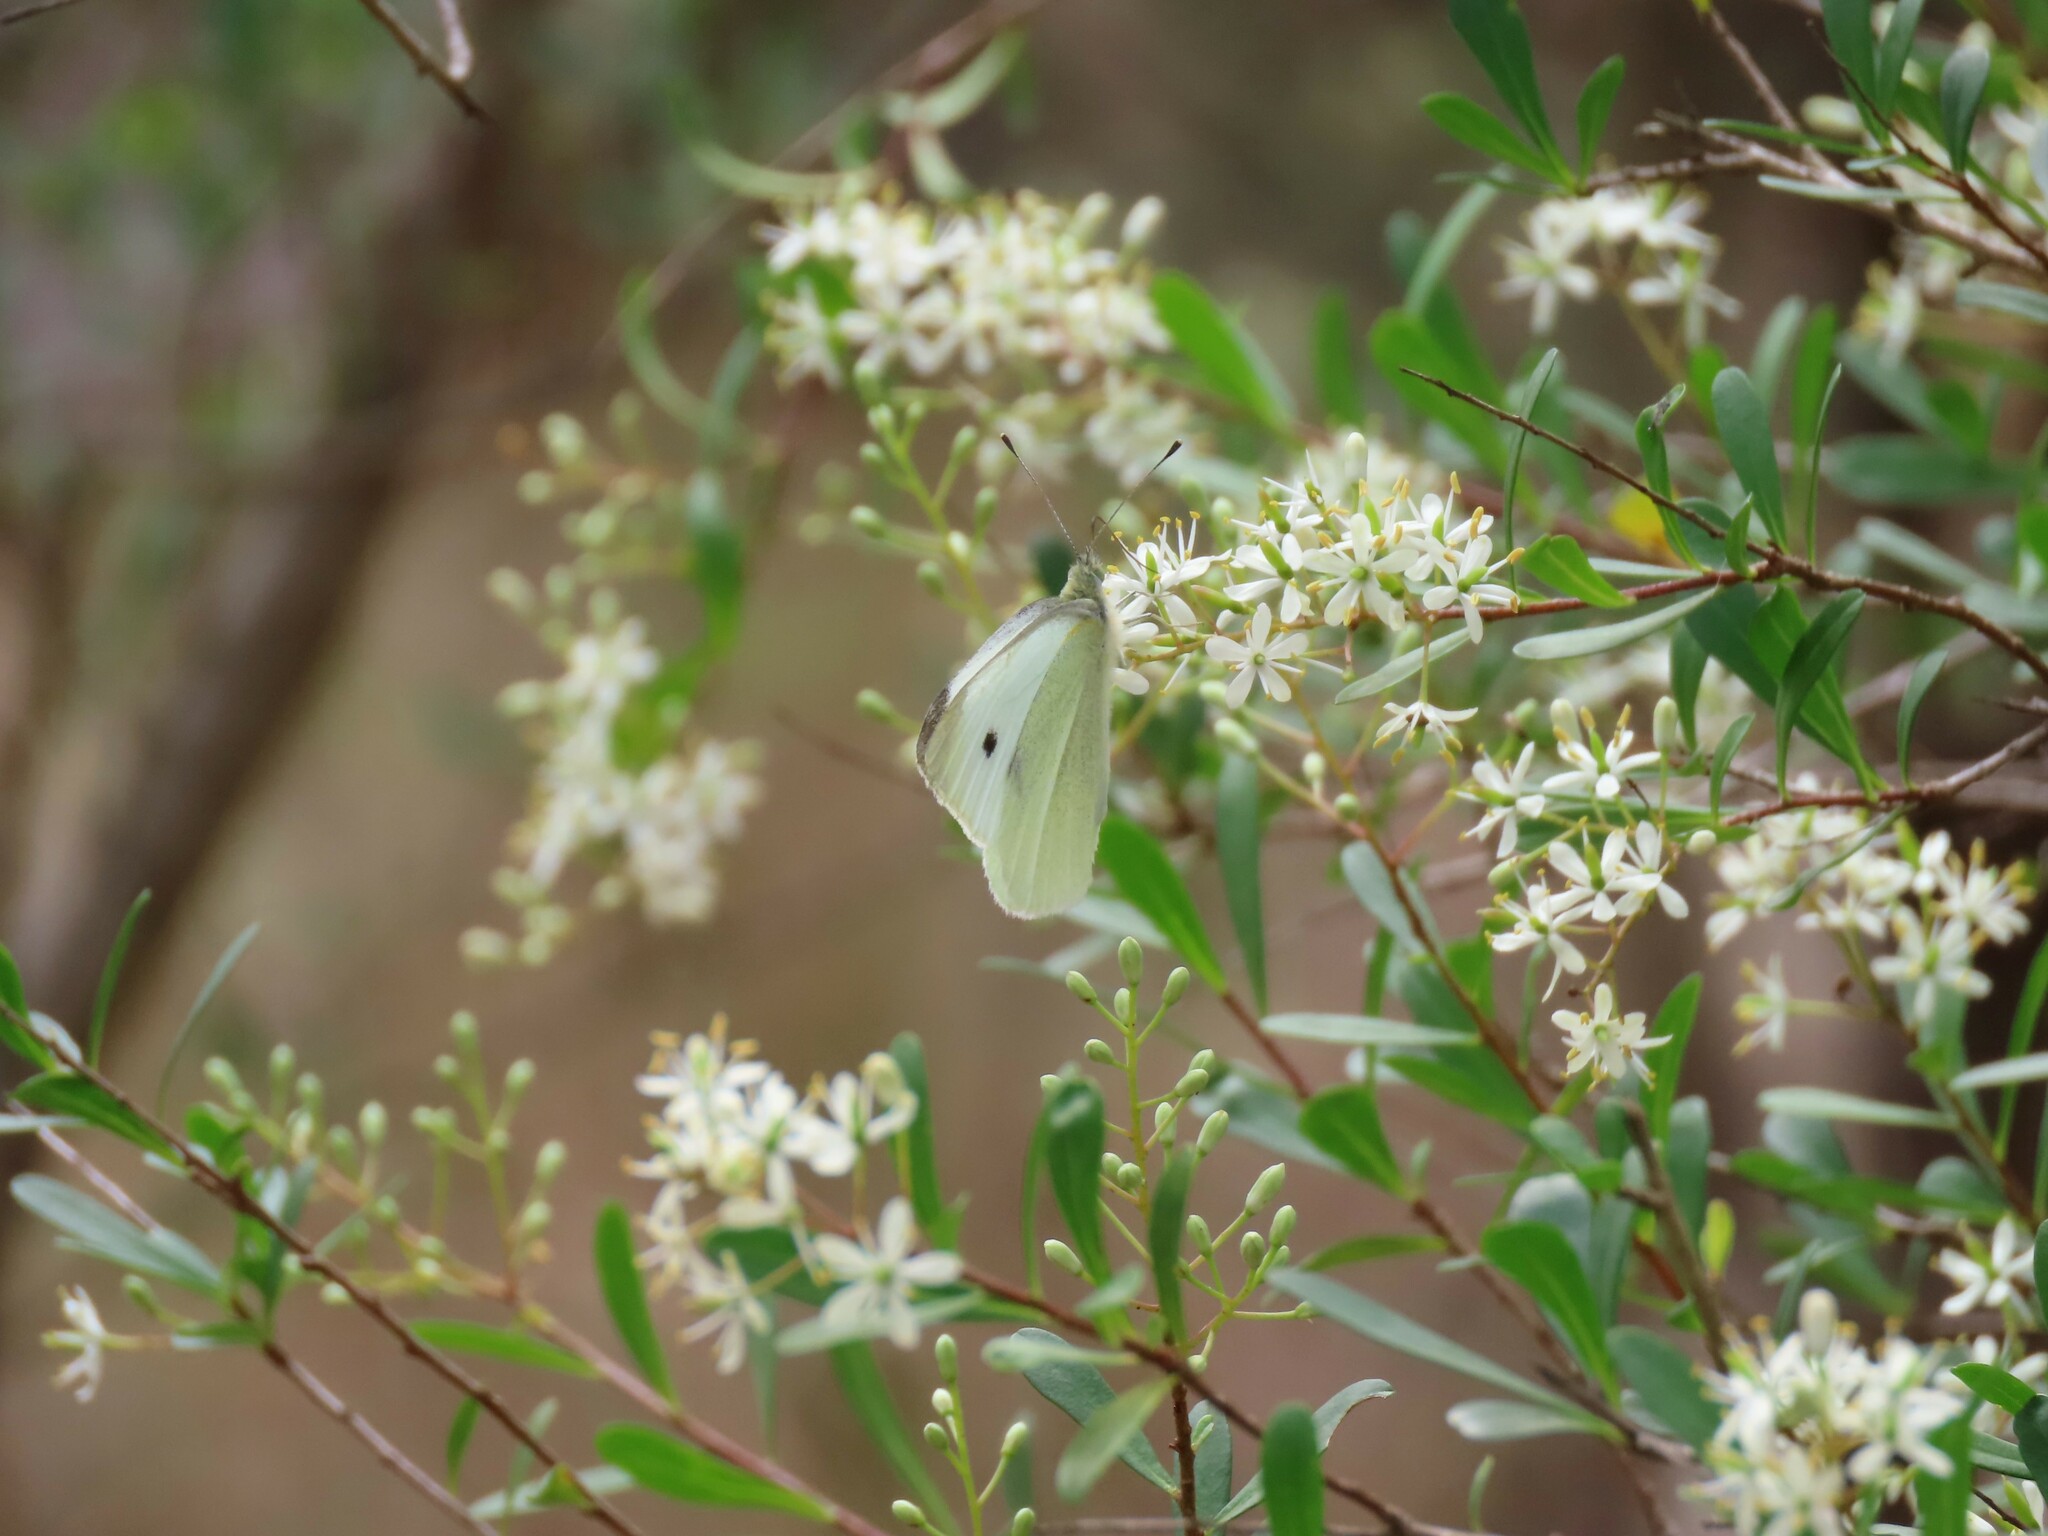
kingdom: Animalia
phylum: Arthropoda
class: Insecta
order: Lepidoptera
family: Pieridae
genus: Pieris
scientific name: Pieris rapae
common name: Small white
